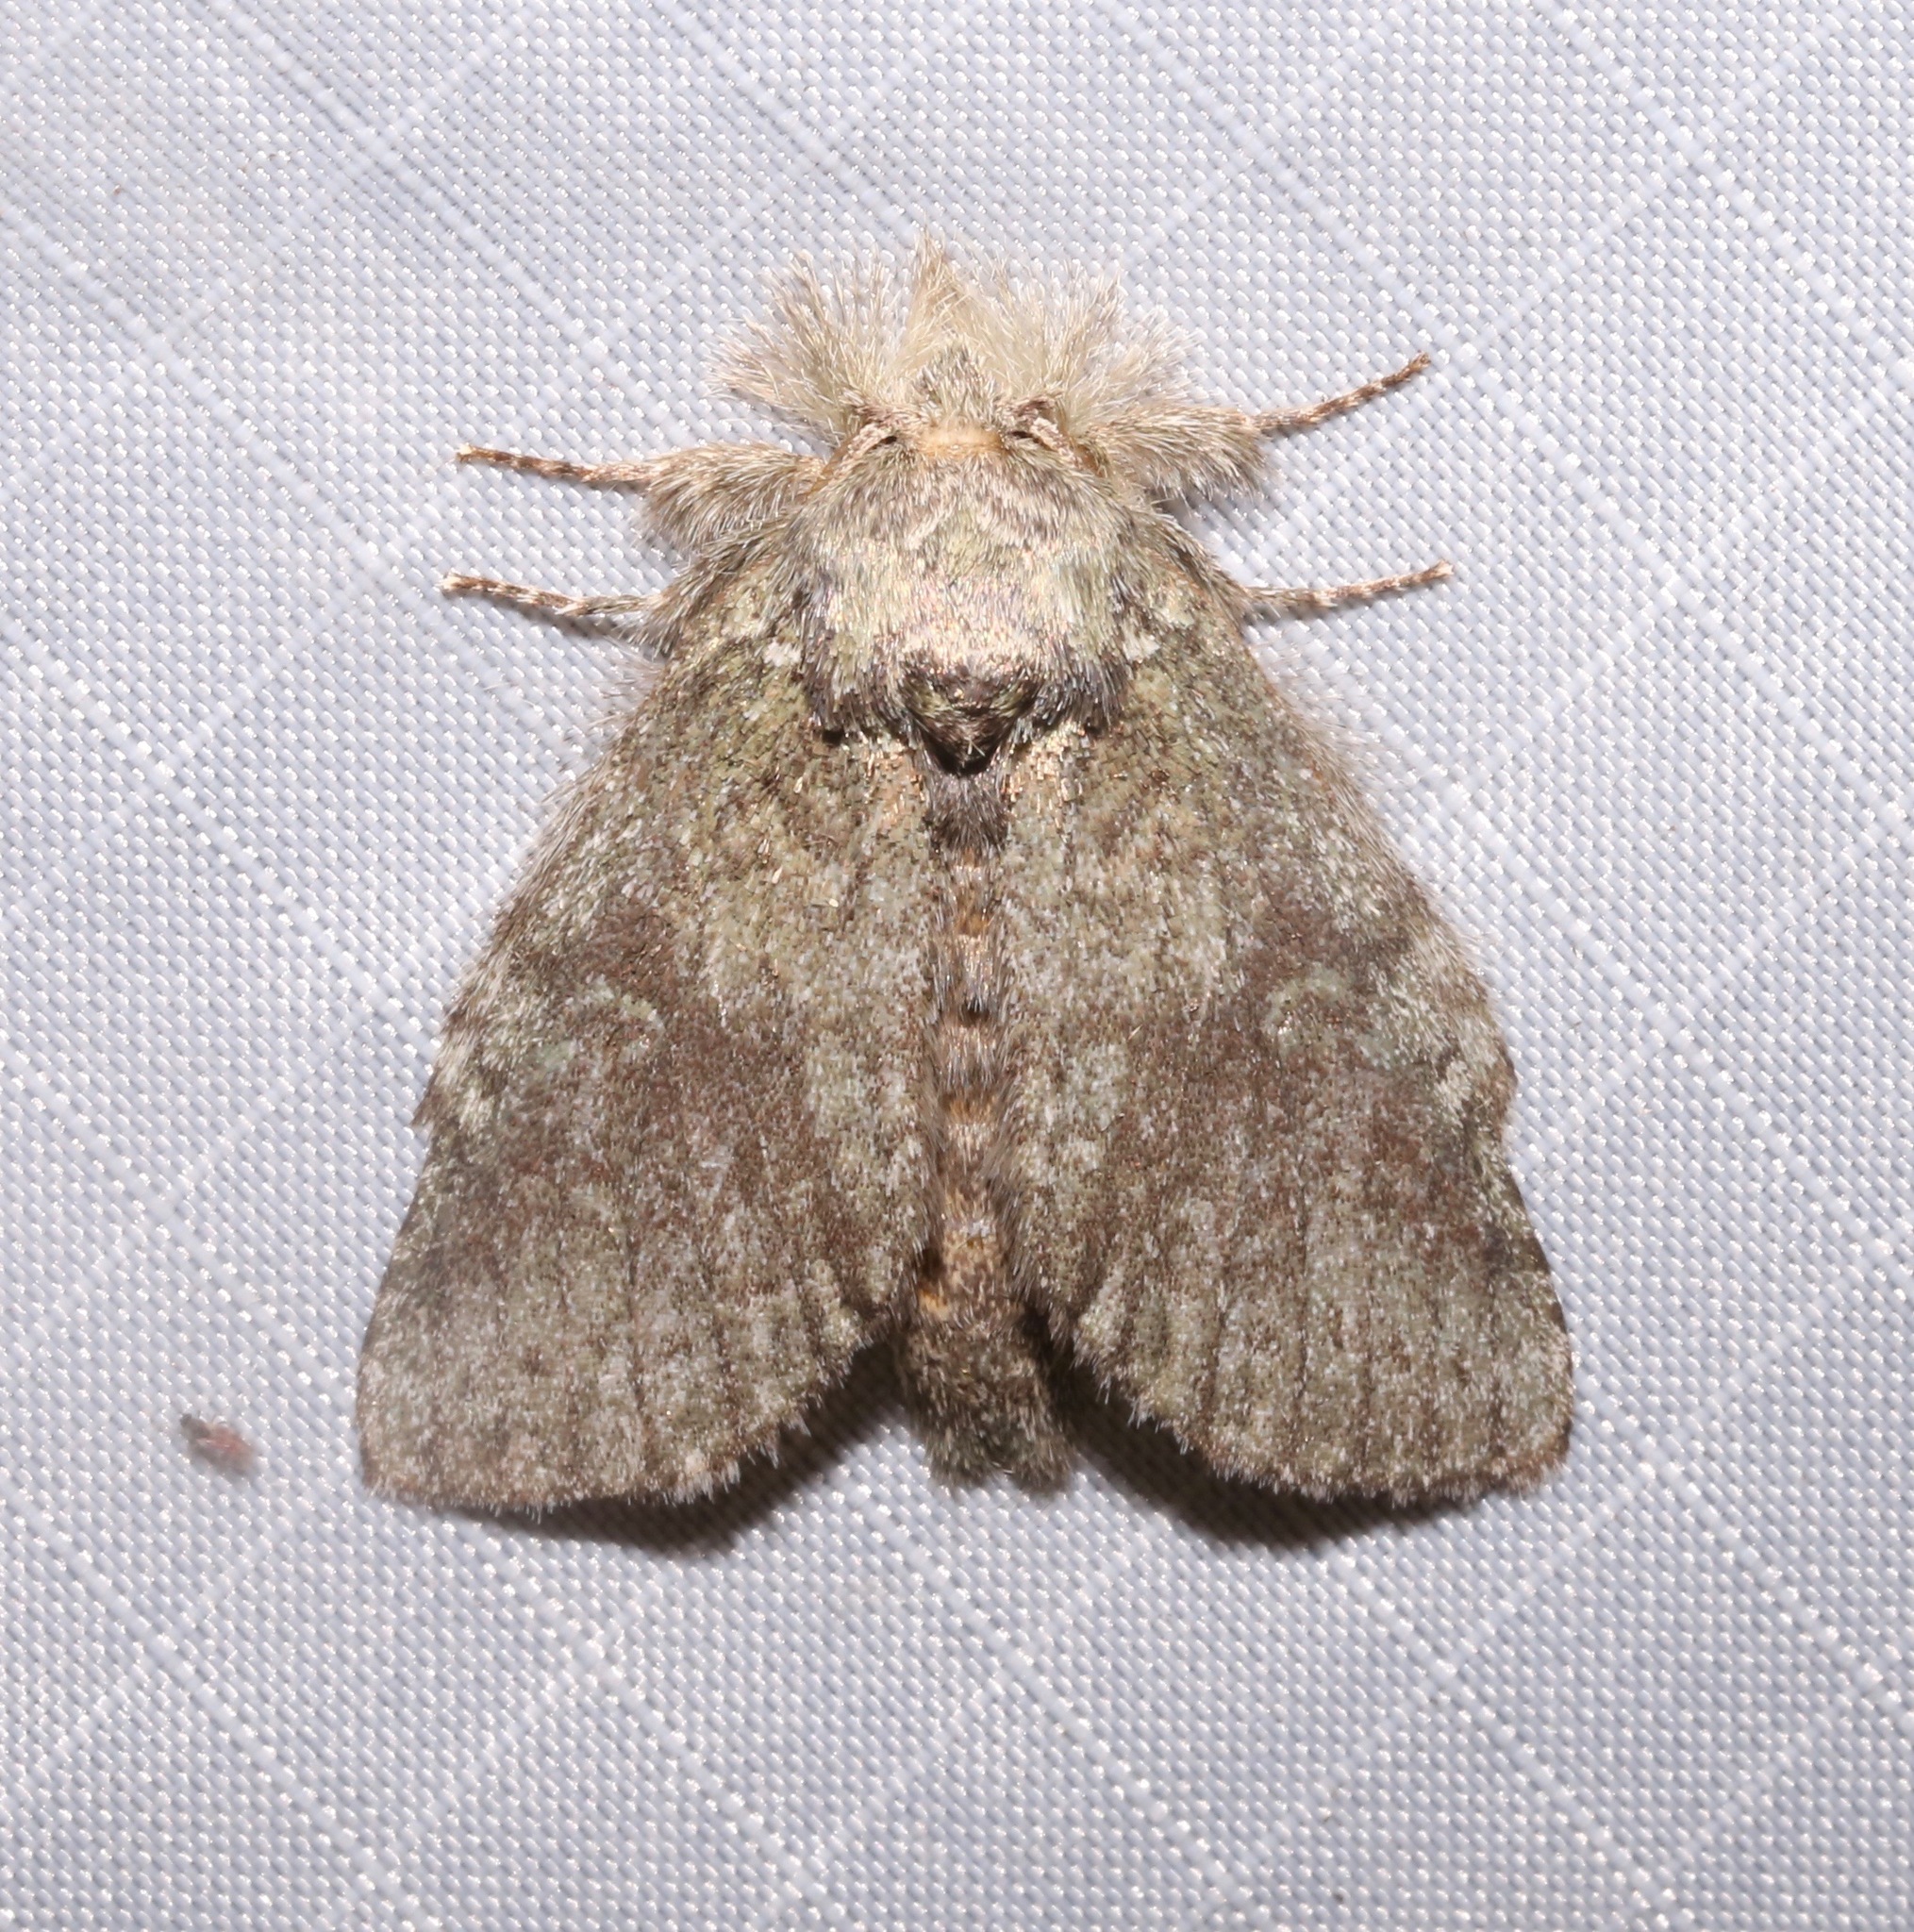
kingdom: Animalia
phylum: Arthropoda
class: Insecta
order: Lepidoptera
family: Notodontidae
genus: Disphragis
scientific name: Disphragis Cecrita guttivitta
